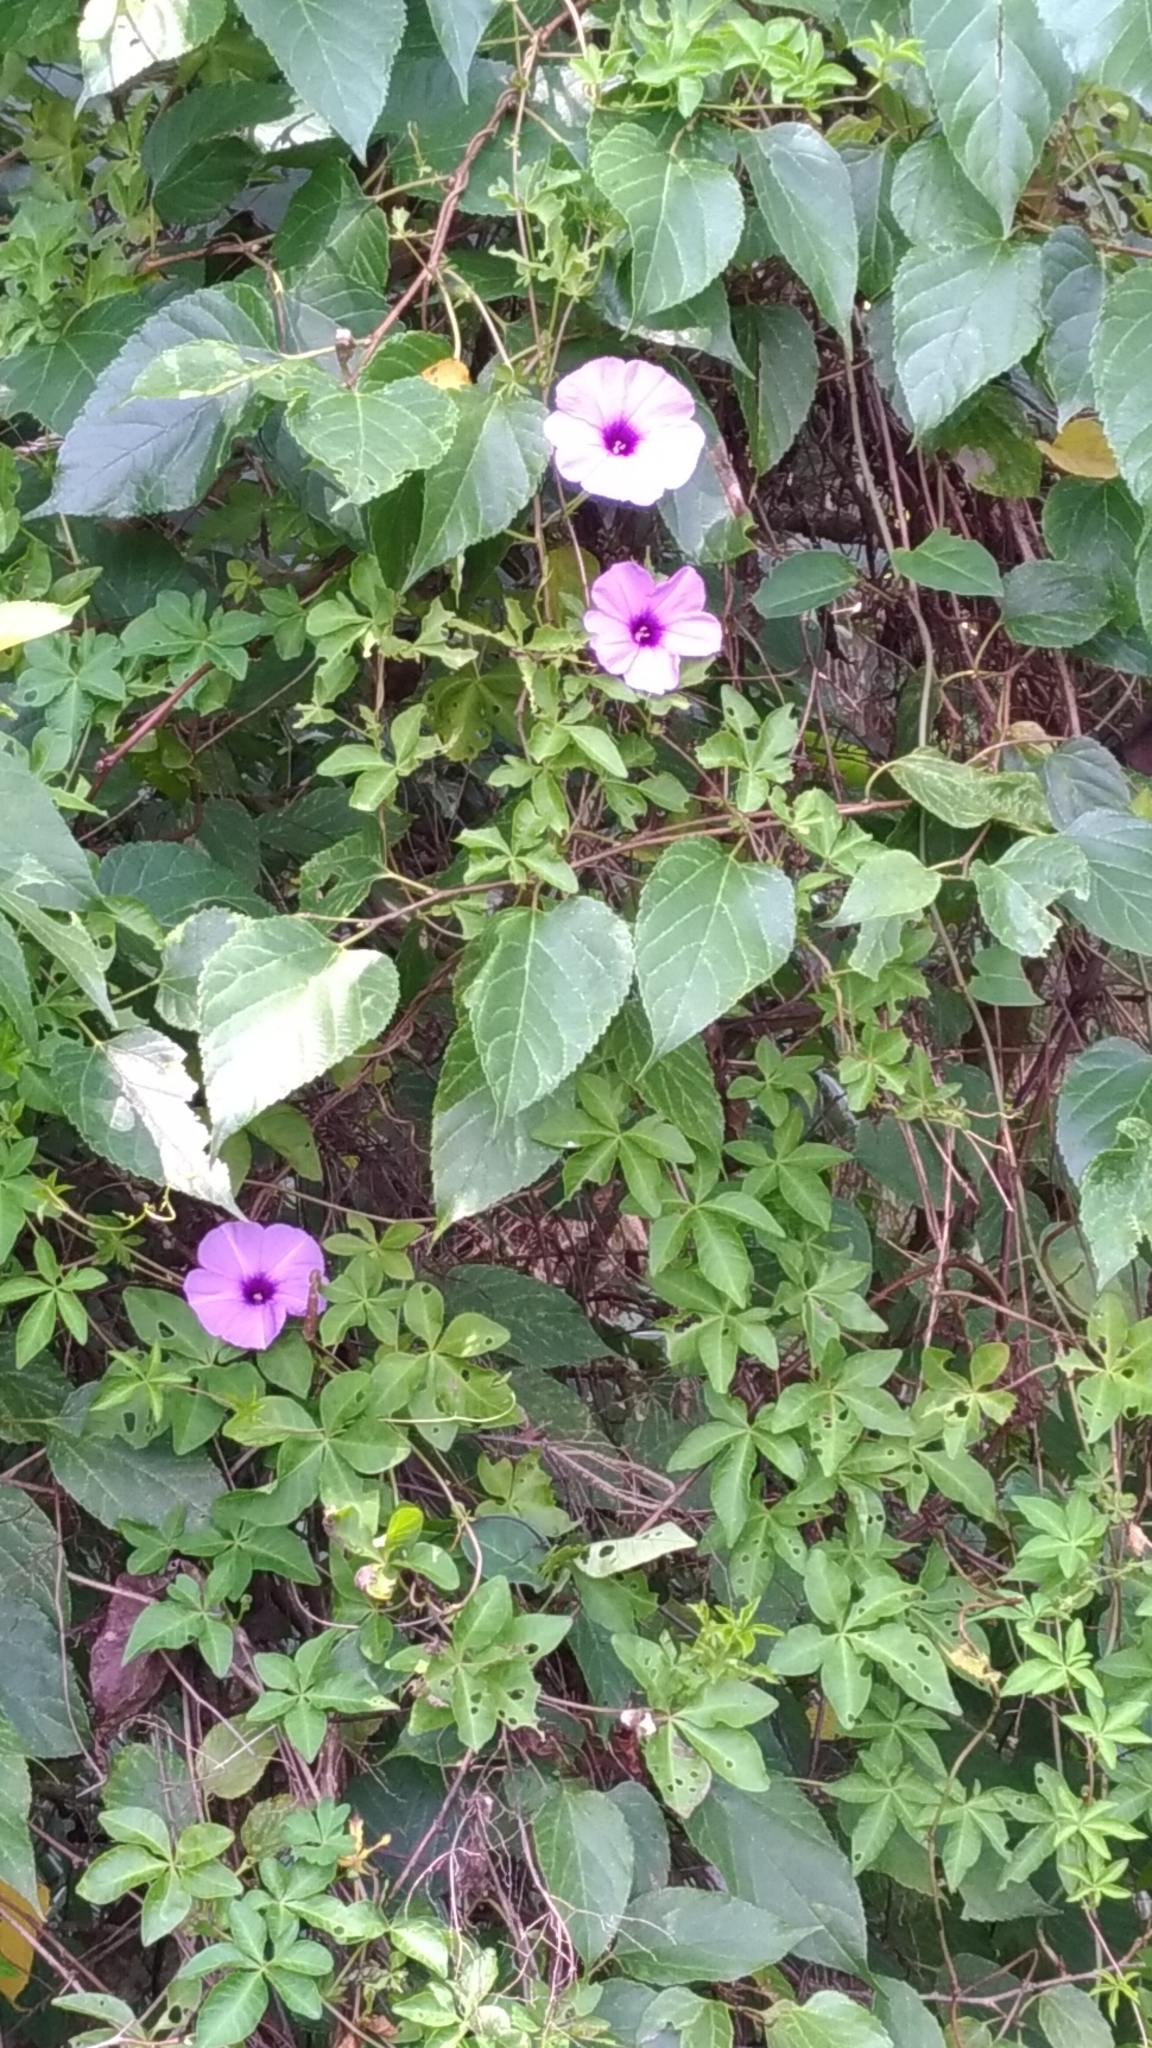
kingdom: Plantae
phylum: Tracheophyta
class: Magnoliopsida
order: Solanales
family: Convolvulaceae
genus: Ipomoea
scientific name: Ipomoea cairica
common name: Mile a minute vine
